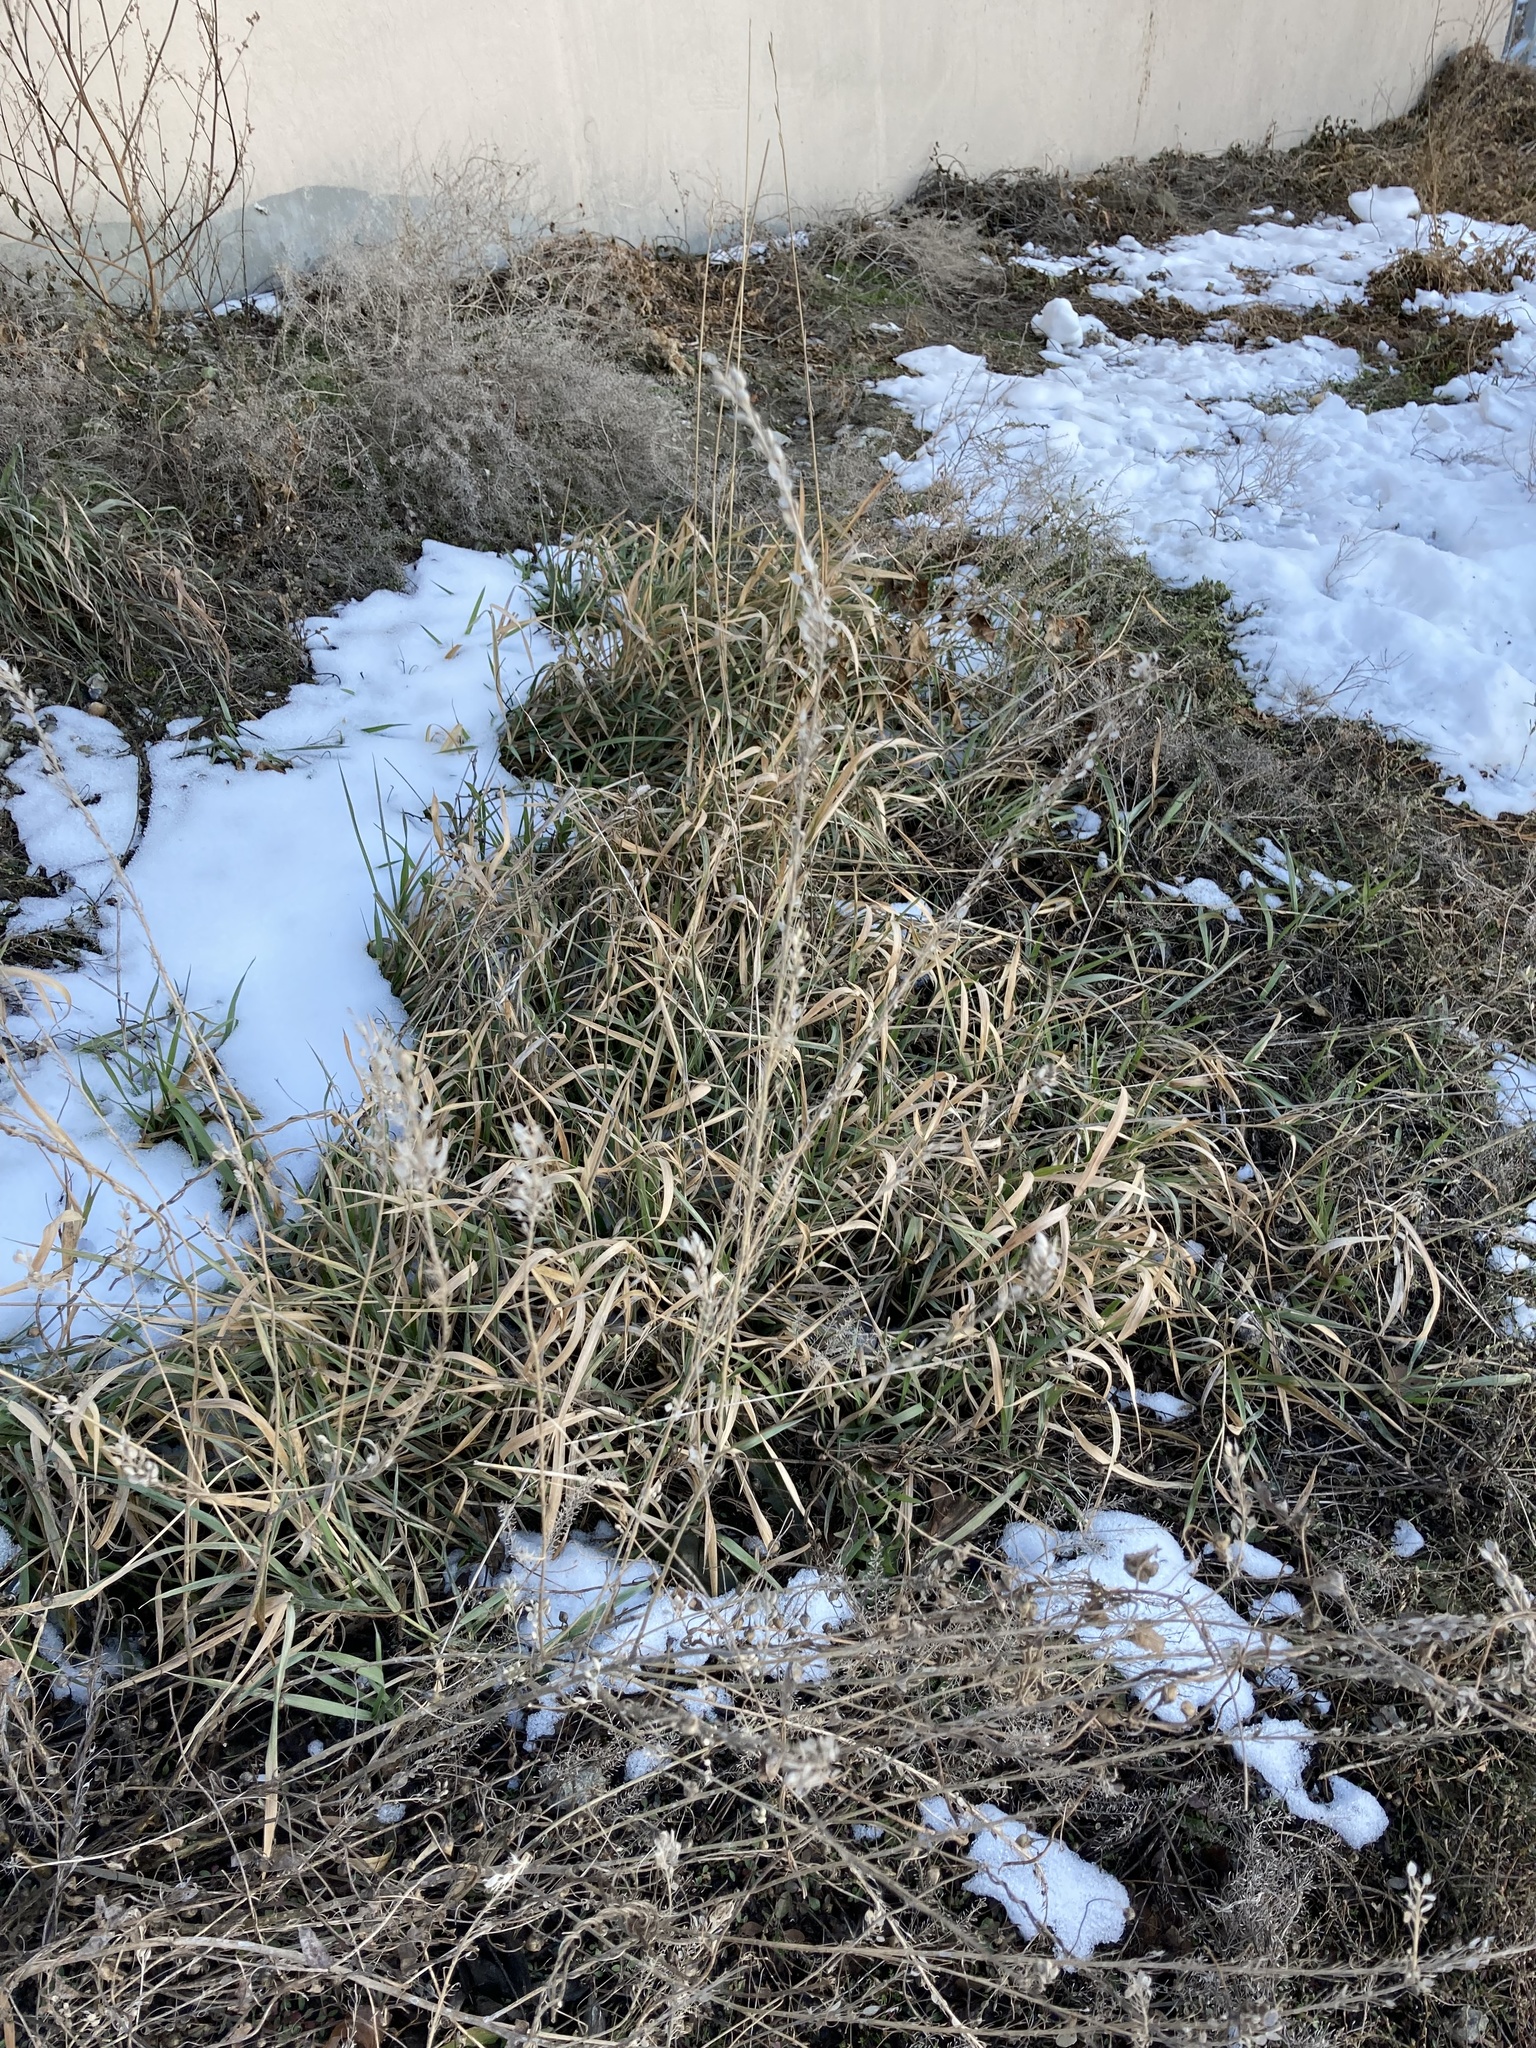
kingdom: Plantae
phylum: Tracheophyta
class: Magnoliopsida
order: Brassicales
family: Brassicaceae
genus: Berteroa
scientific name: Berteroa incana
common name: Hoary alison
